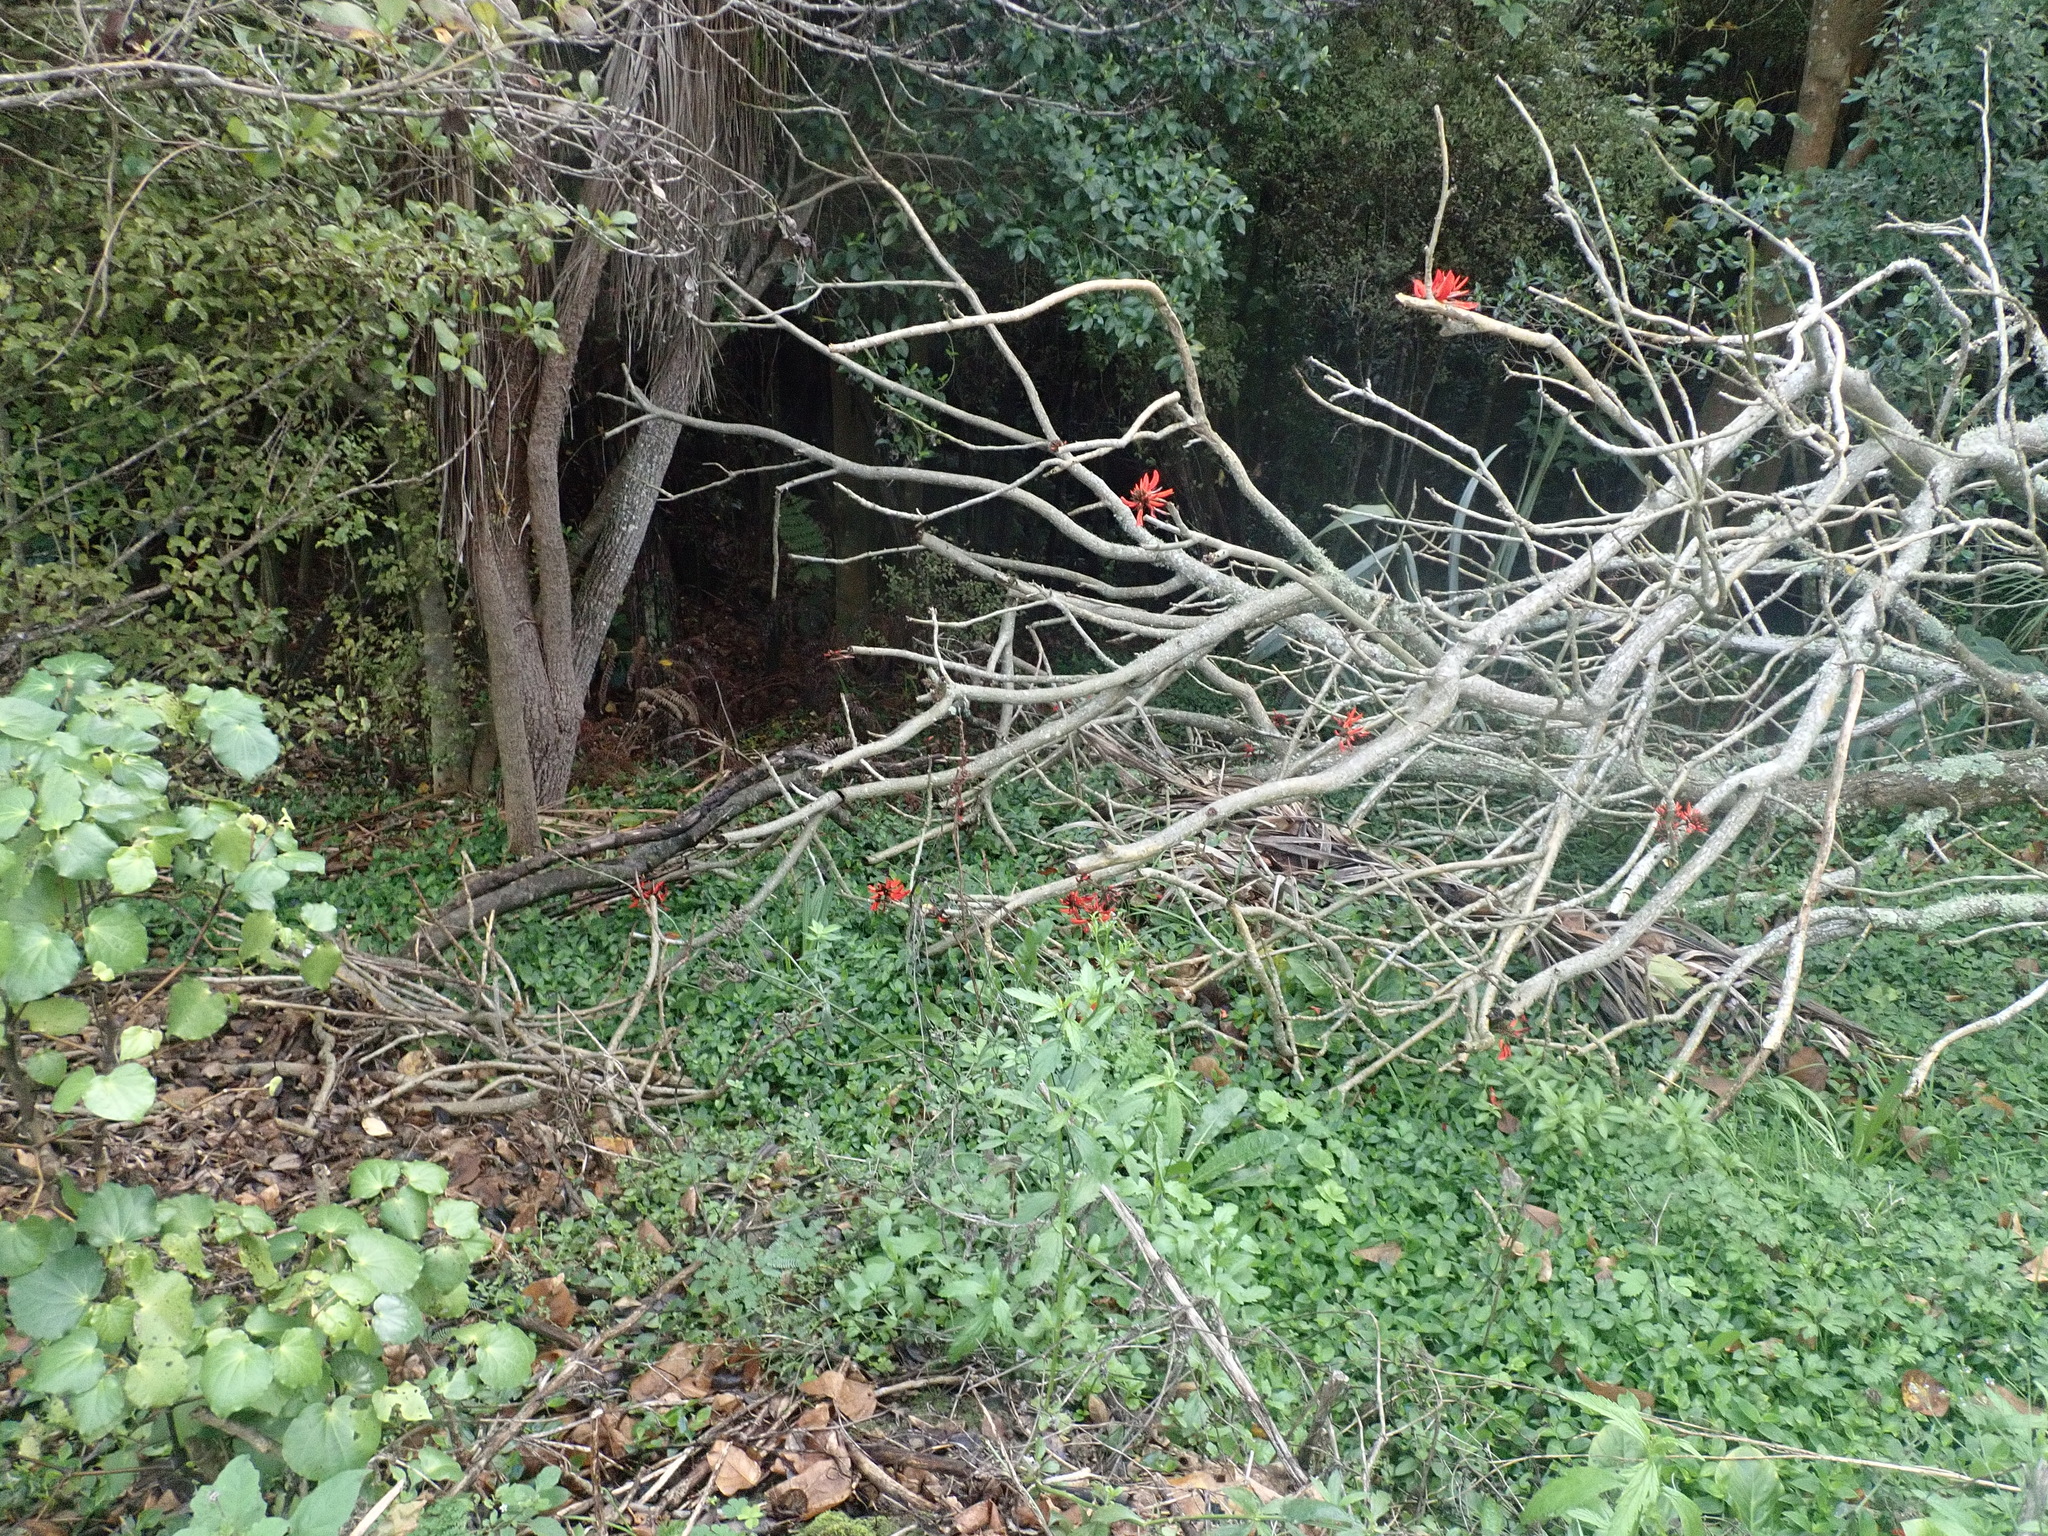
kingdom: Plantae
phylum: Tracheophyta
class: Liliopsida
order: Commelinales
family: Commelinaceae
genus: Tradescantia
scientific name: Tradescantia fluminensis
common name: Wandering-jew
